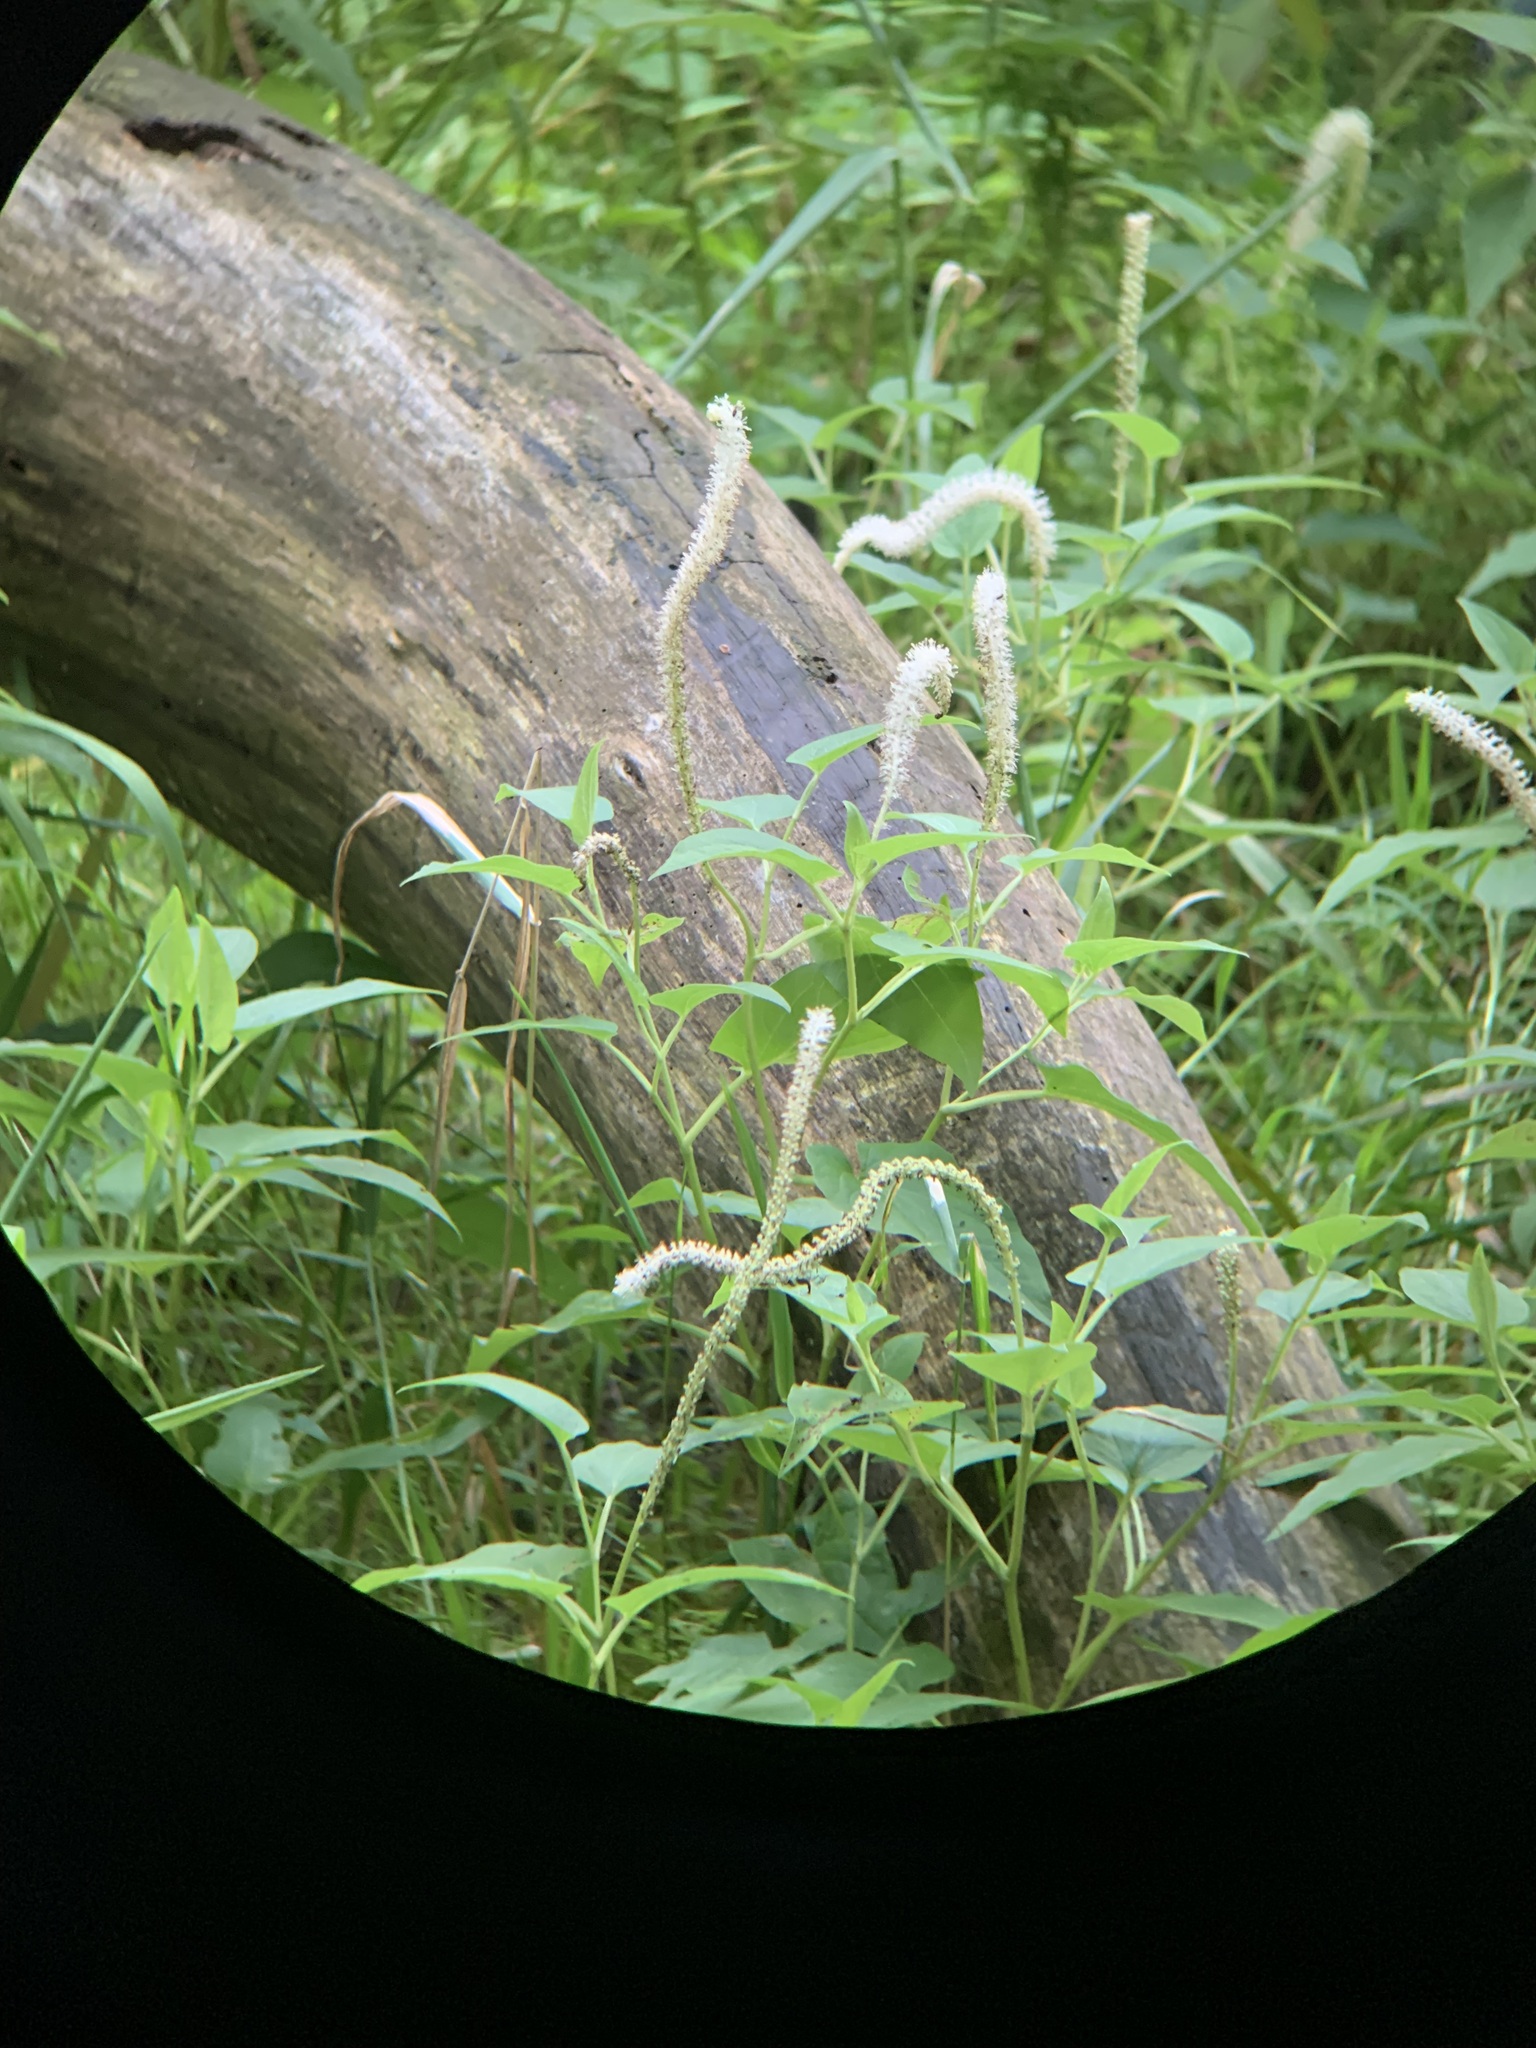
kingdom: Plantae
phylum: Tracheophyta
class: Magnoliopsida
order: Piperales
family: Saururaceae
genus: Saururus
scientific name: Saururus cernuus
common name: Lizard's-tail
